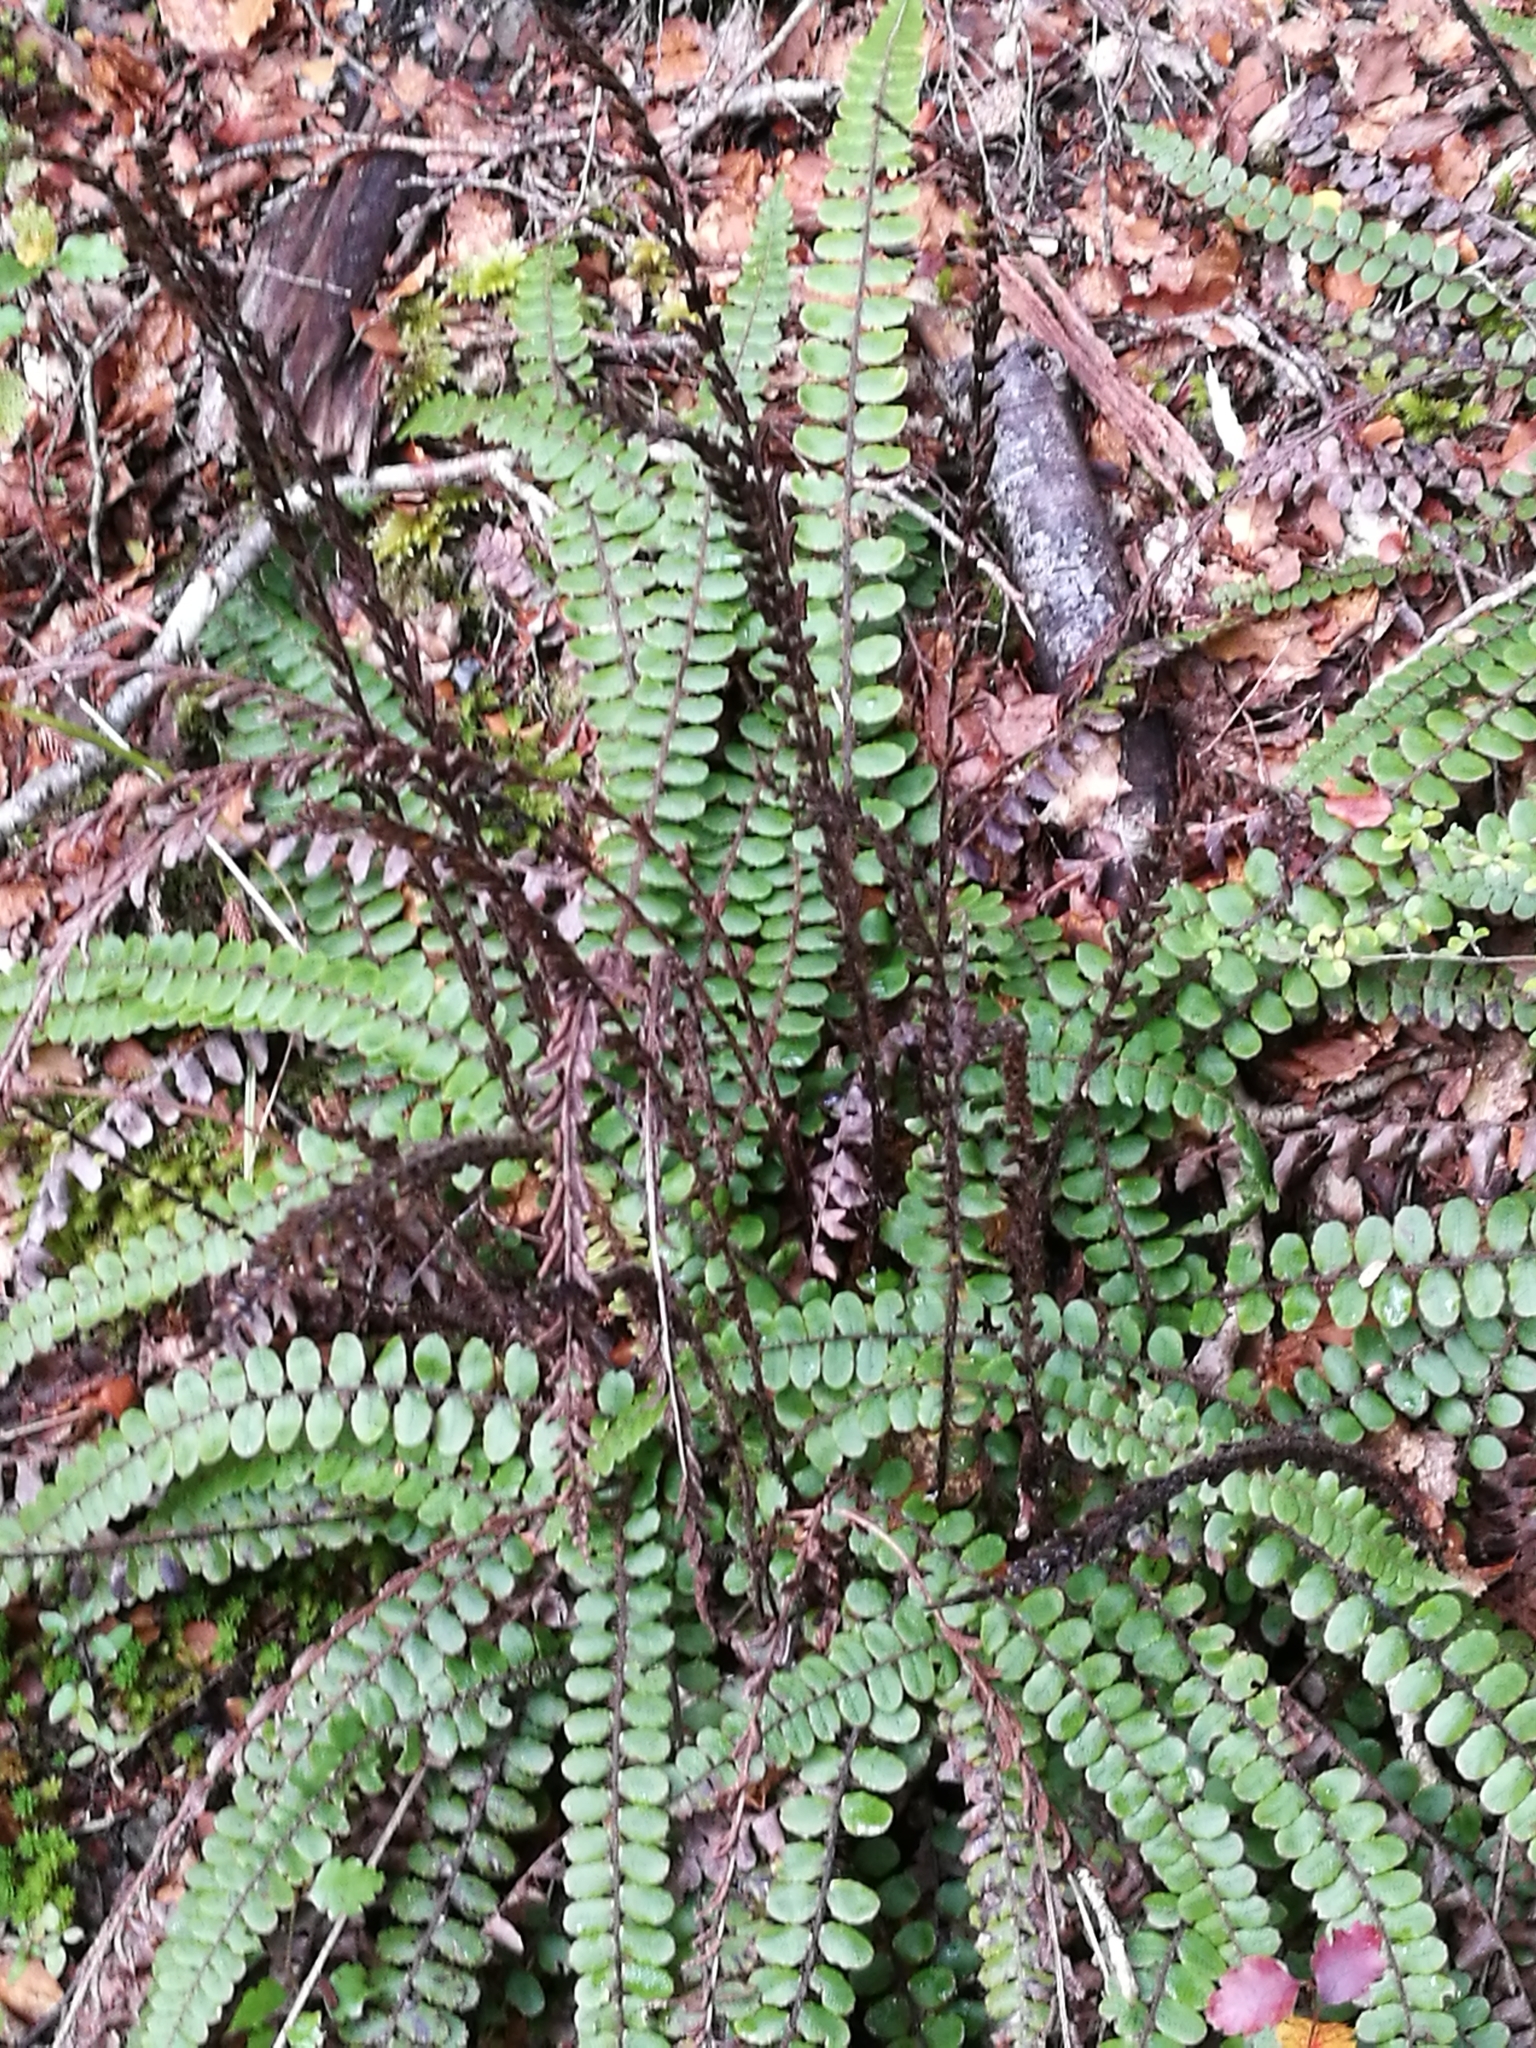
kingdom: Plantae
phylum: Tracheophyta
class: Polypodiopsida
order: Polypodiales
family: Blechnaceae
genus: Cranfillia
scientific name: Cranfillia fluviatilis
